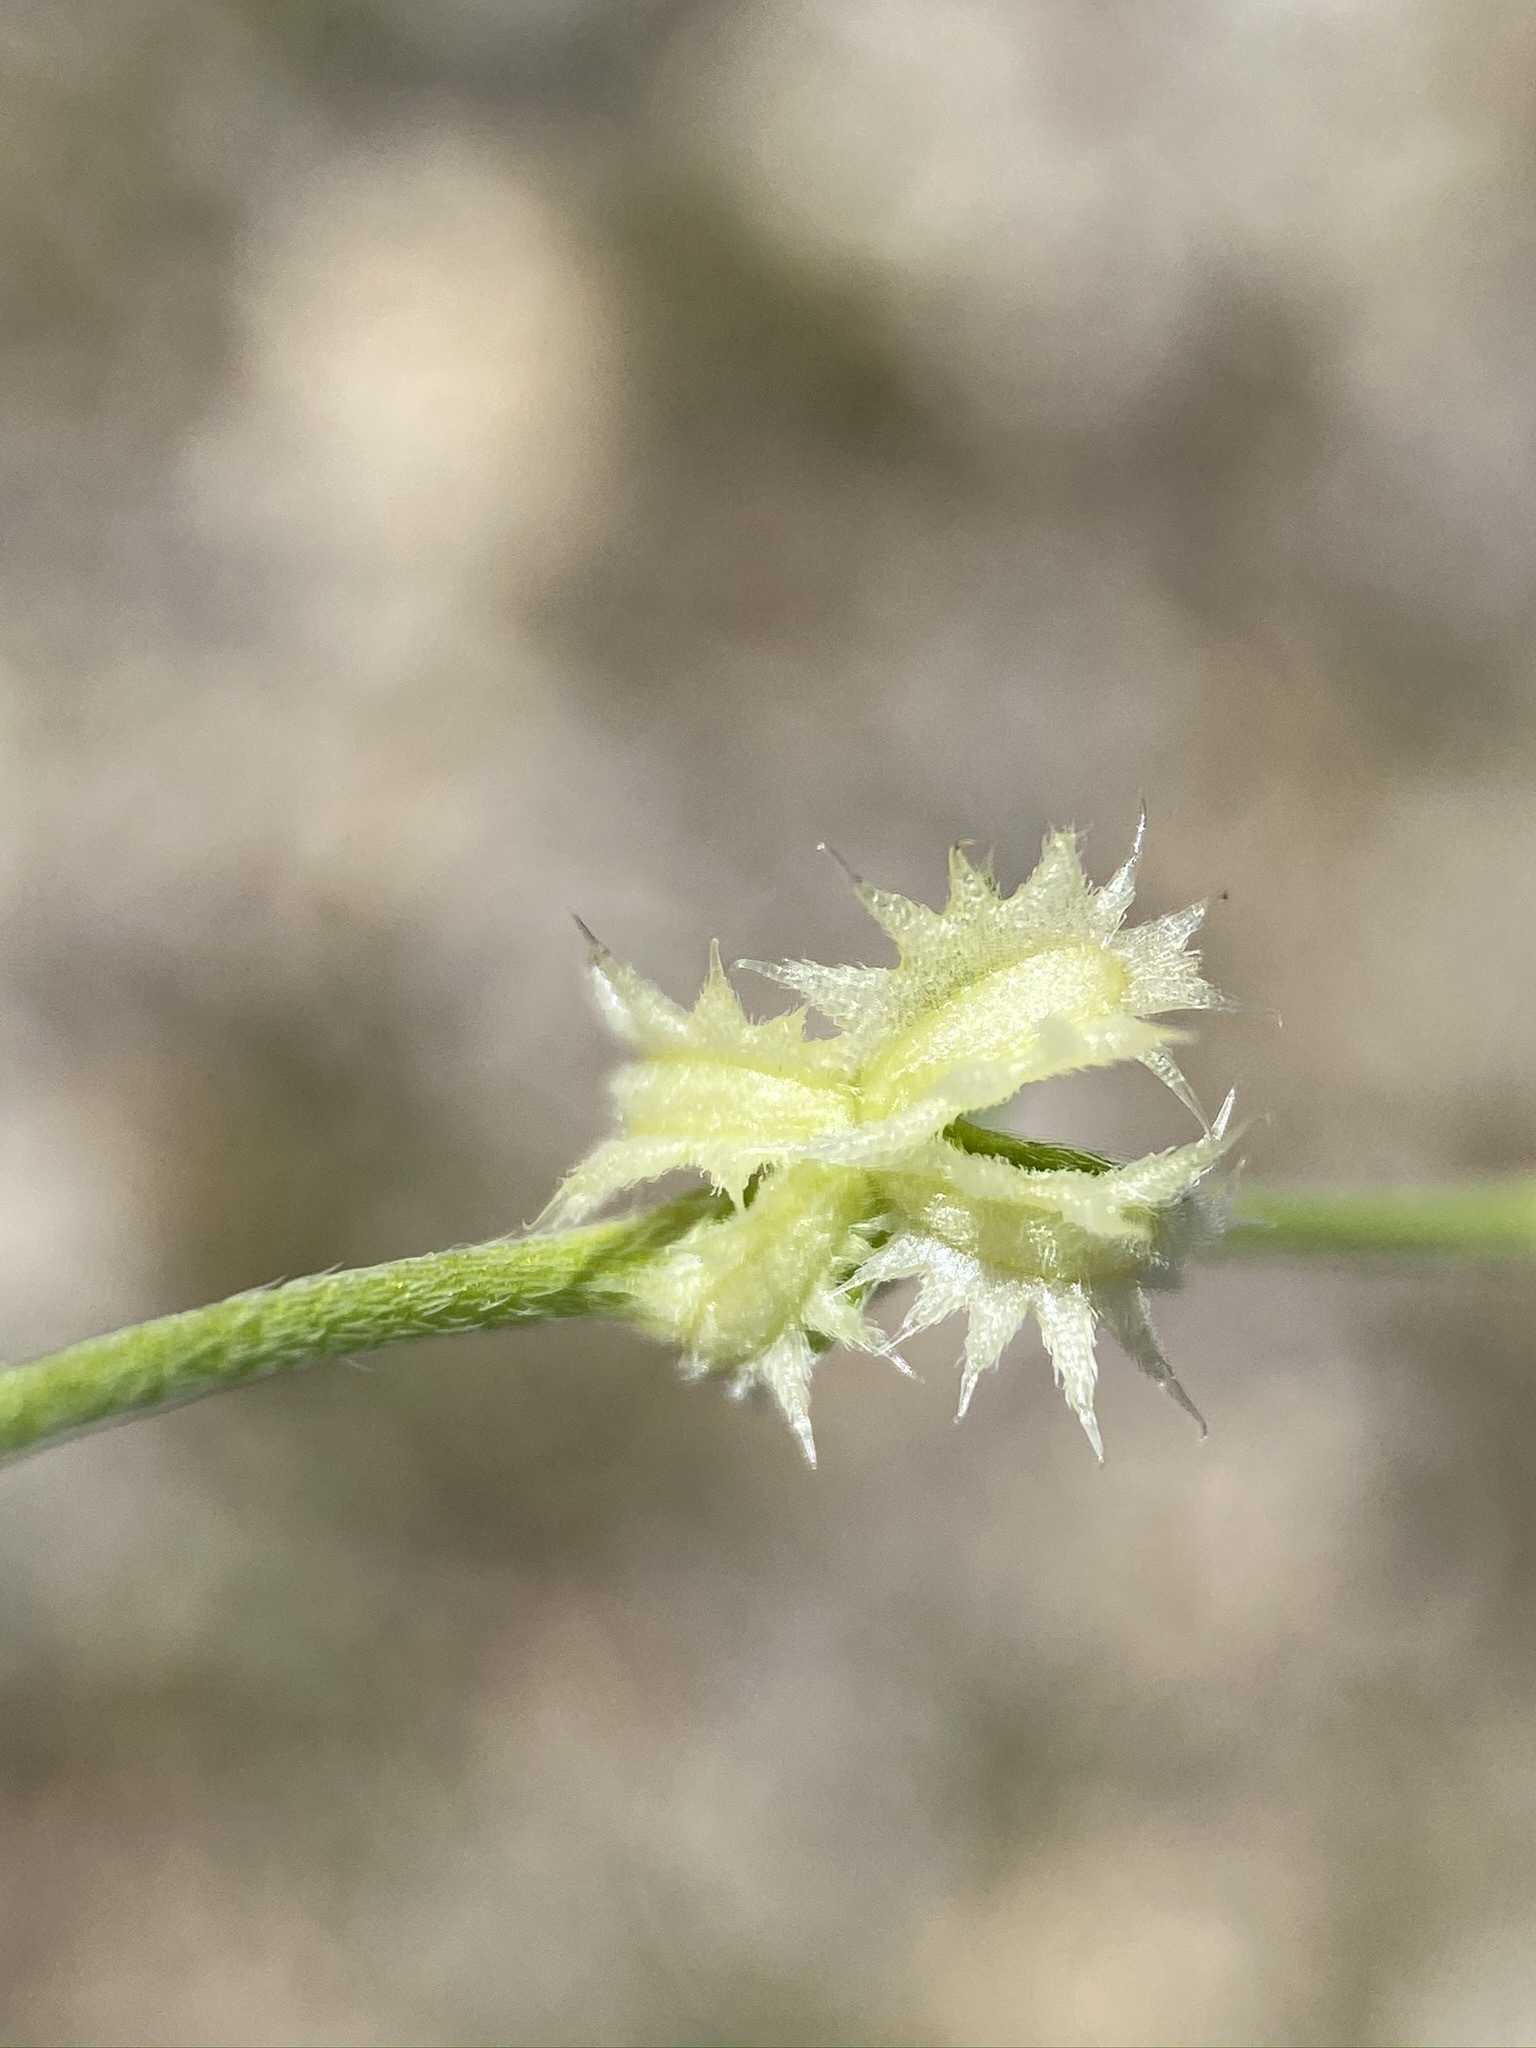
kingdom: Plantae
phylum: Tracheophyta
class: Magnoliopsida
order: Boraginales
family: Boraginaceae
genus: Pectocarya
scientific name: Pectocarya platycarpa
